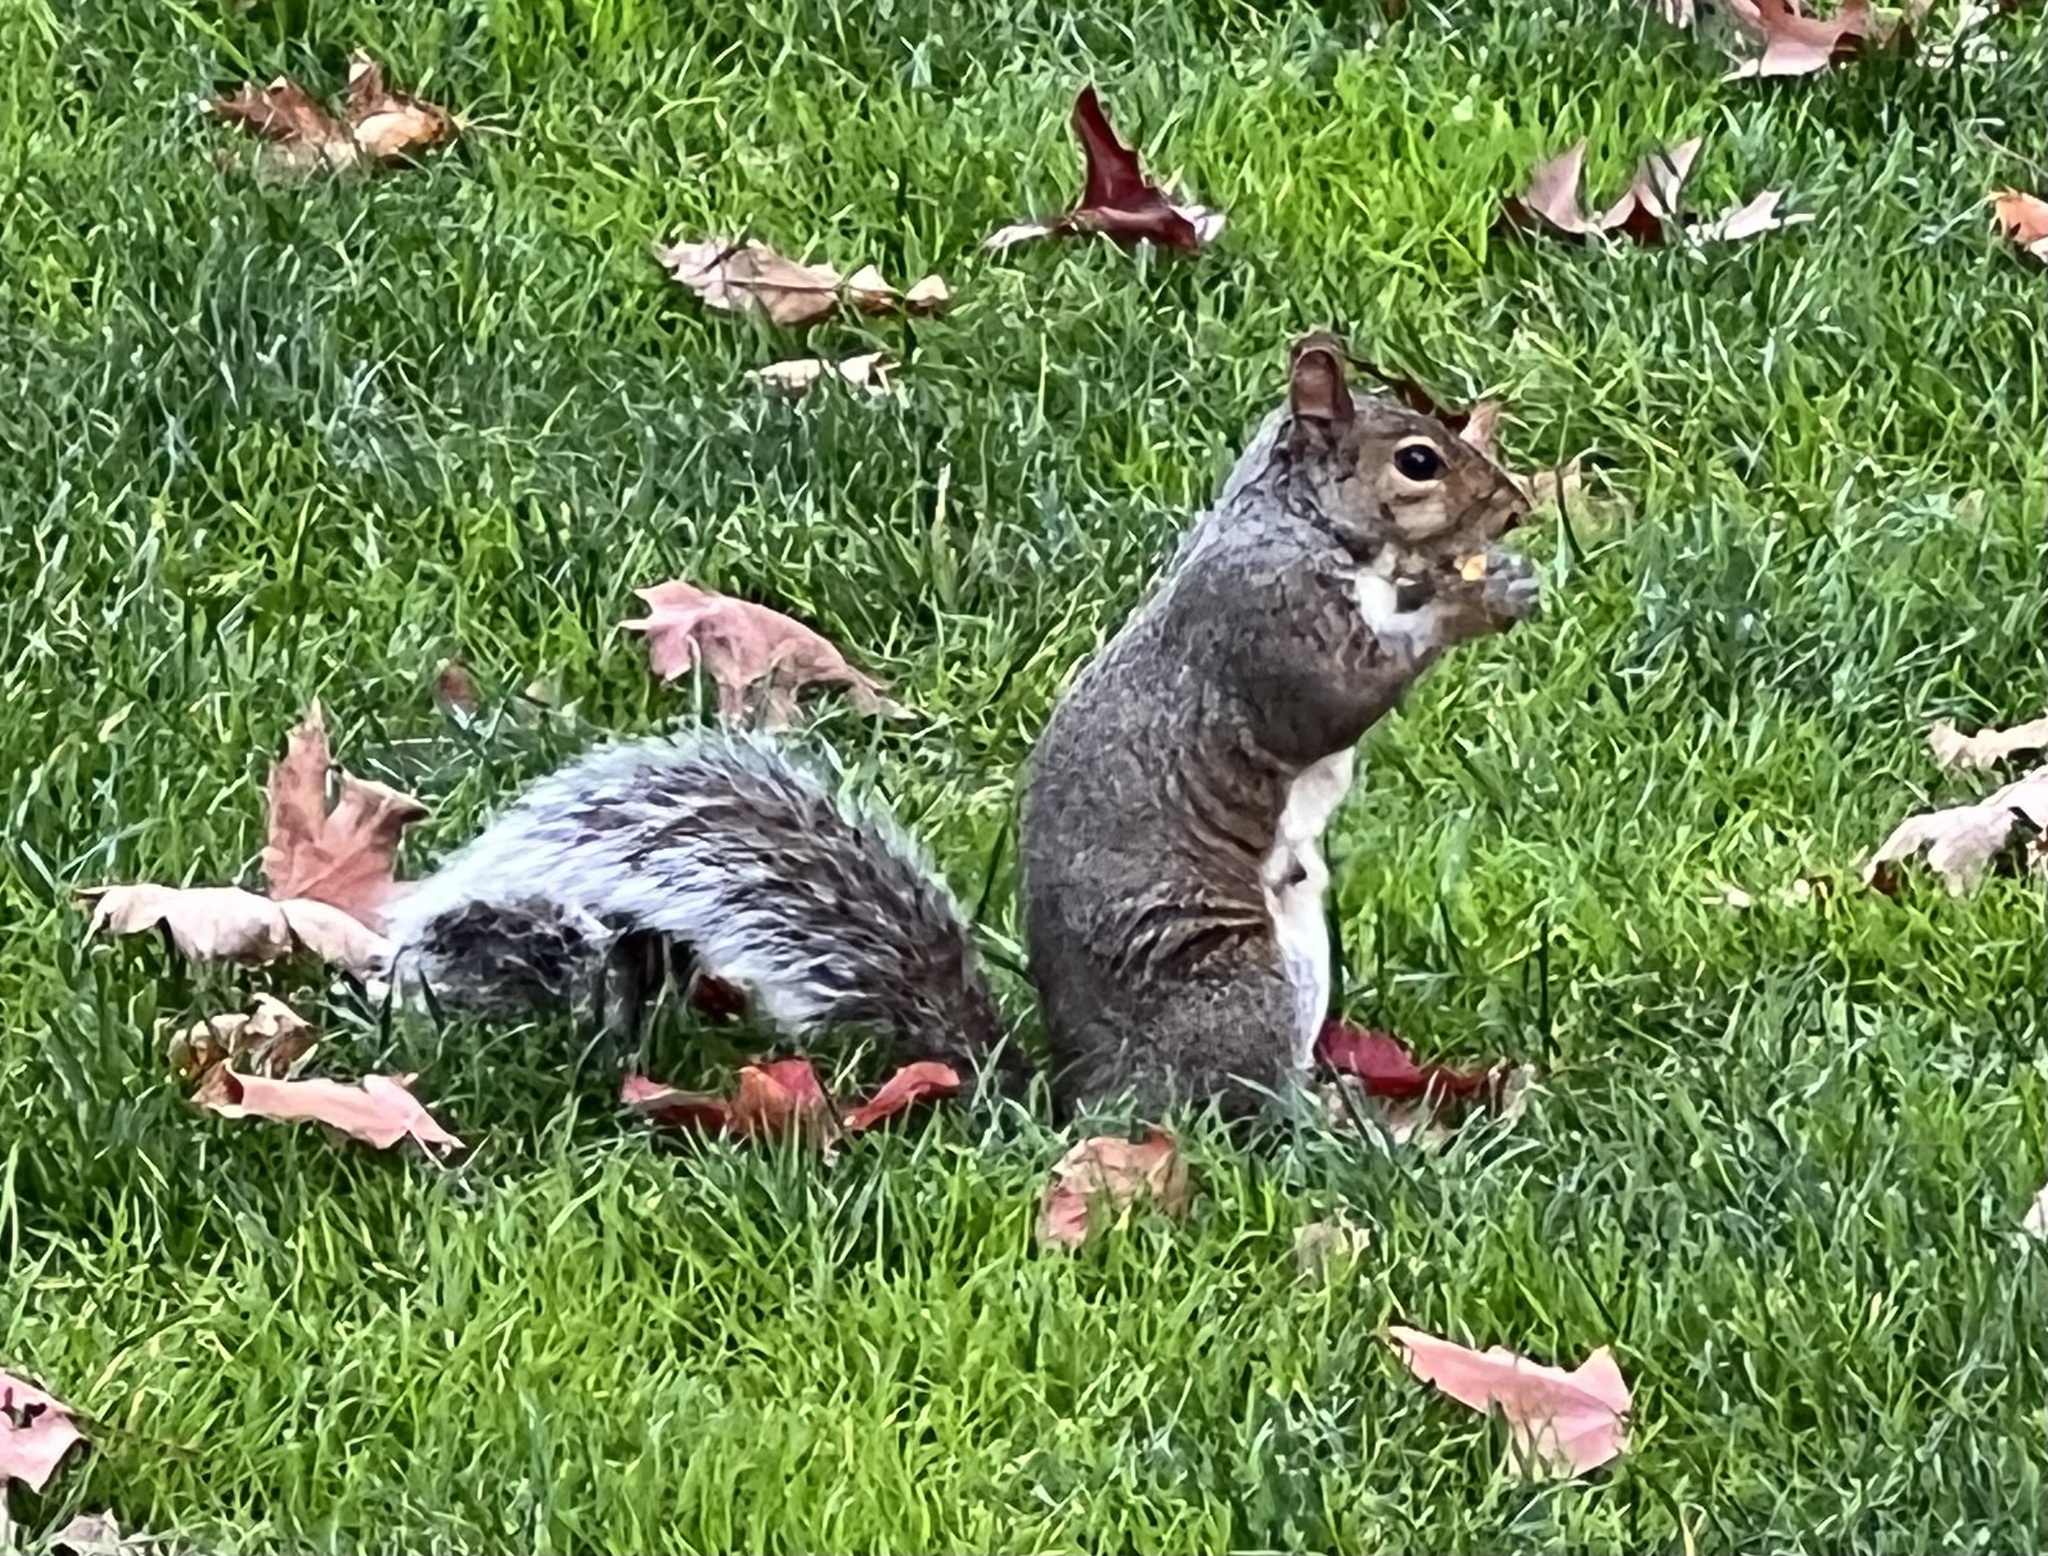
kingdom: Animalia
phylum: Chordata
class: Mammalia
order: Rodentia
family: Sciuridae
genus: Sciurus
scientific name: Sciurus carolinensis
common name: Eastern gray squirrel
